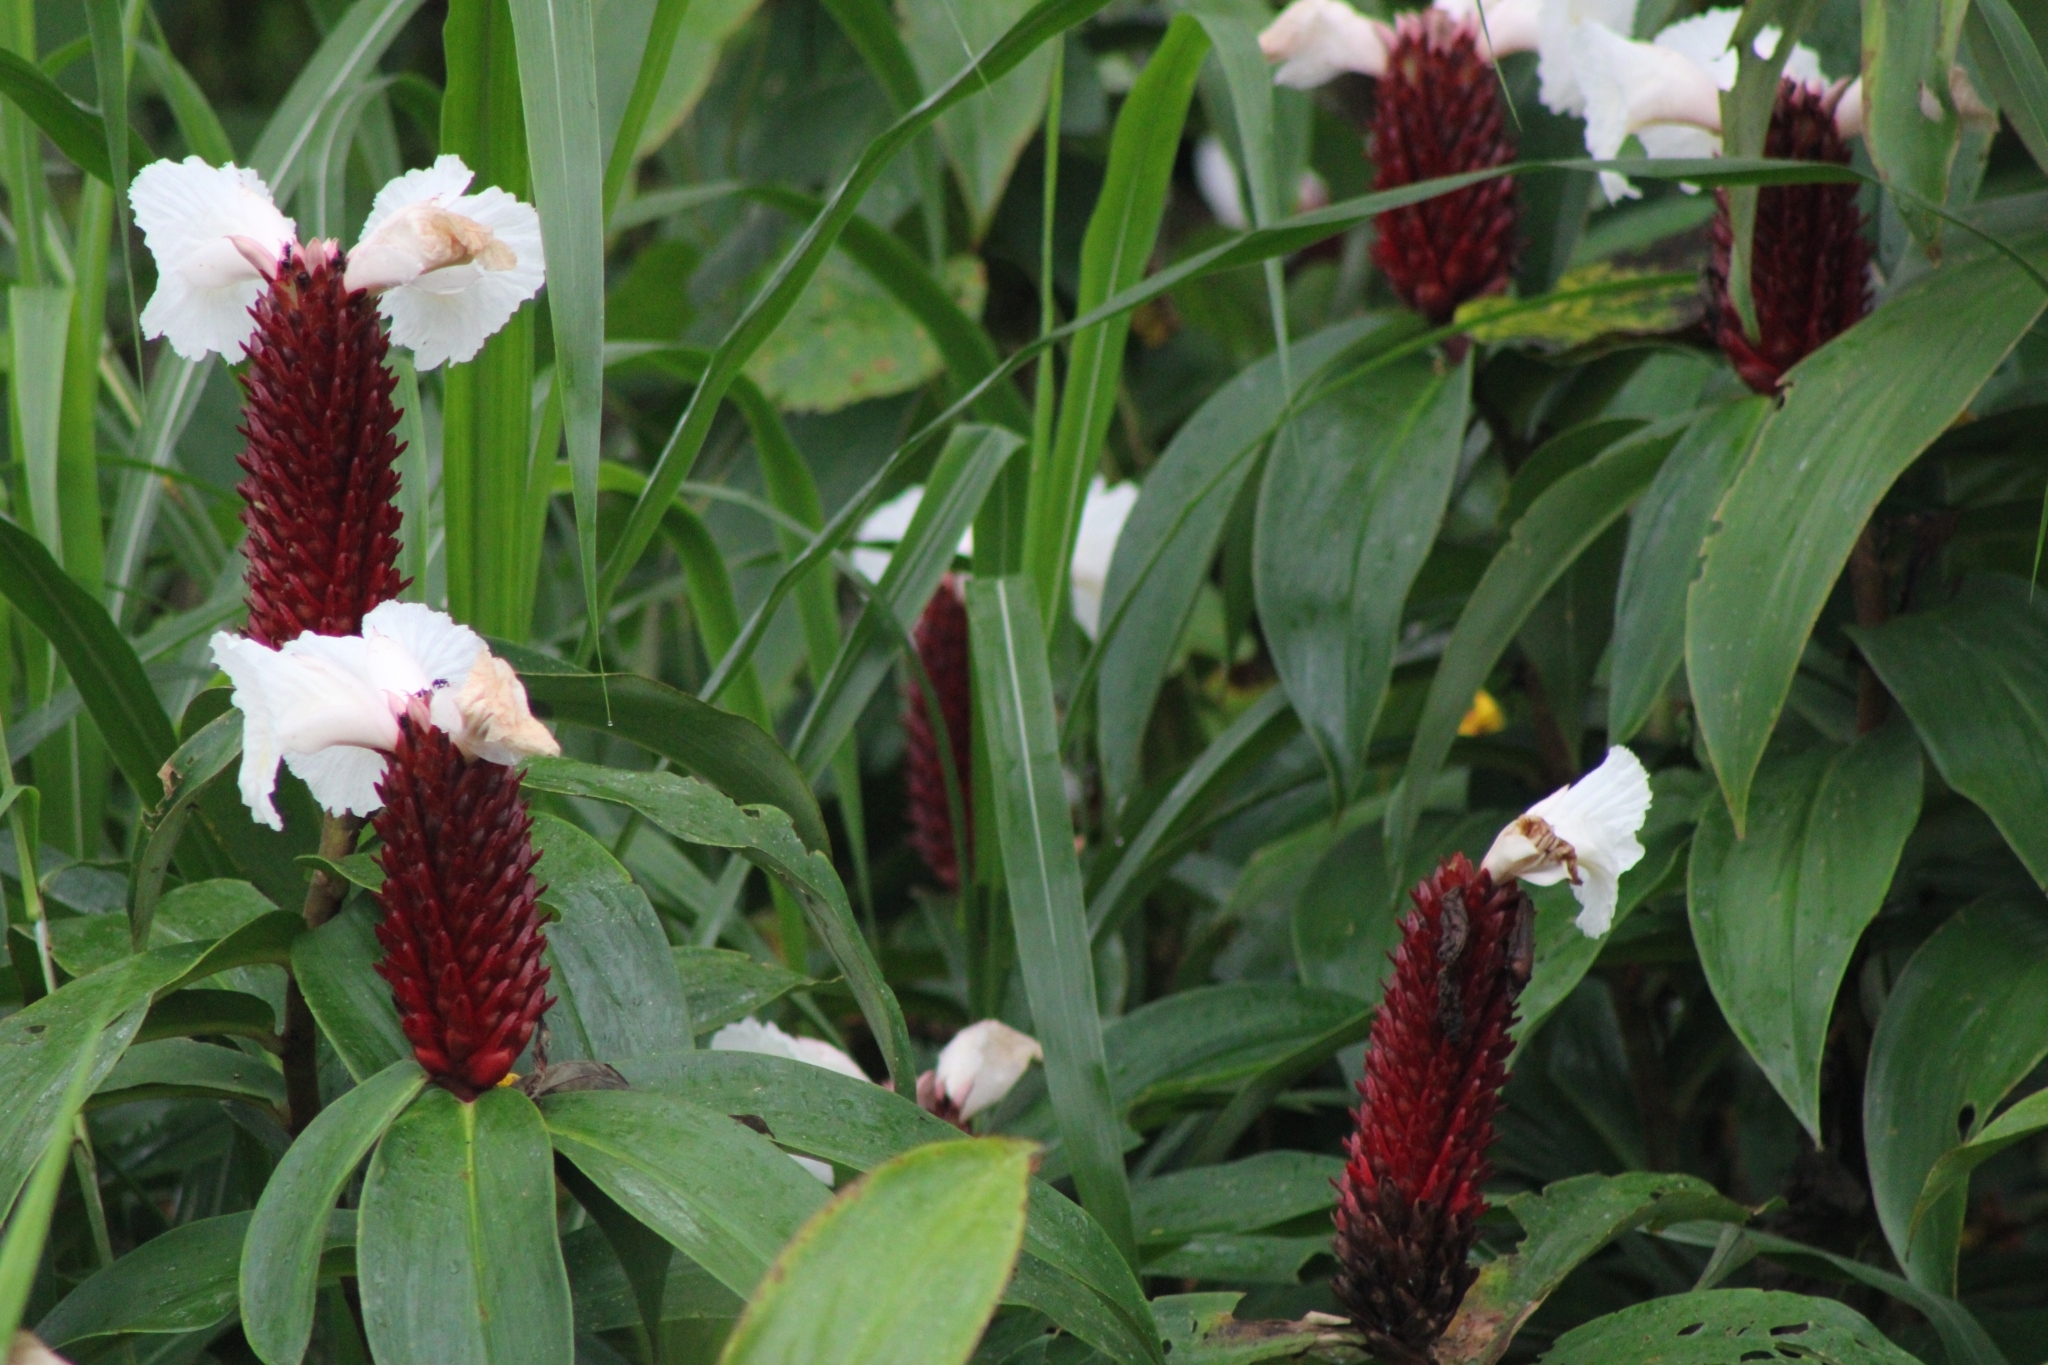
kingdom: Plantae
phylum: Tracheophyta
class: Liliopsida
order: Zingiberales
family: Costaceae
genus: Hellenia
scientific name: Hellenia speciosa
